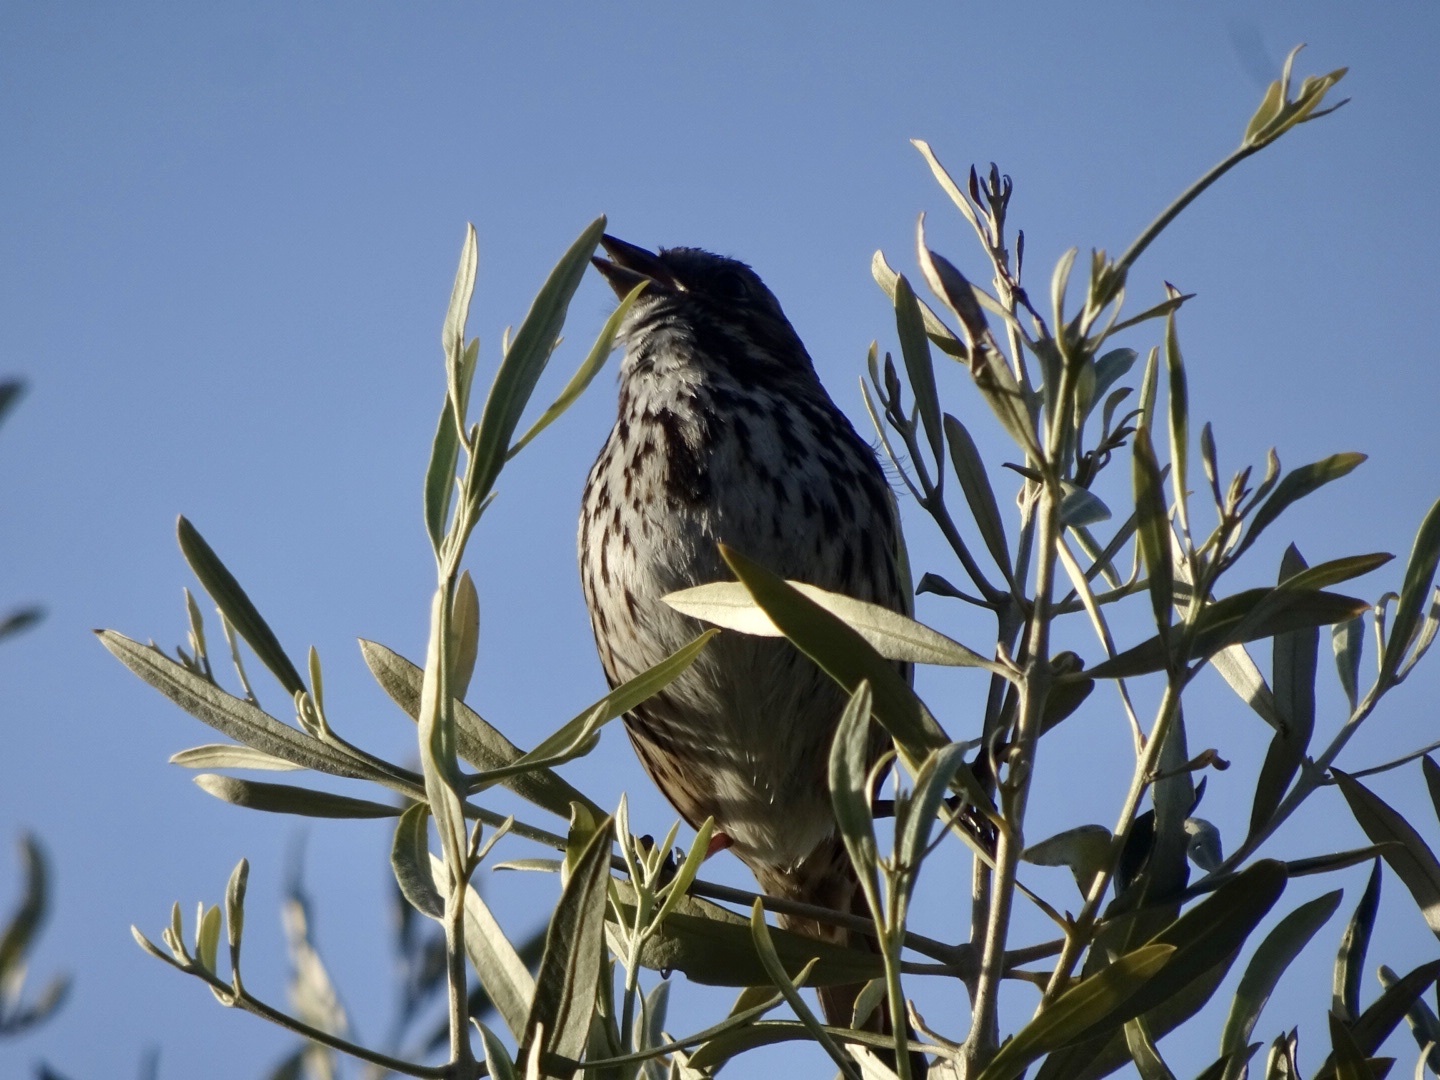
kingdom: Animalia
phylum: Chordata
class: Aves
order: Passeriformes
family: Passerellidae
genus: Melospiza
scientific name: Melospiza melodia
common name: Song sparrow
